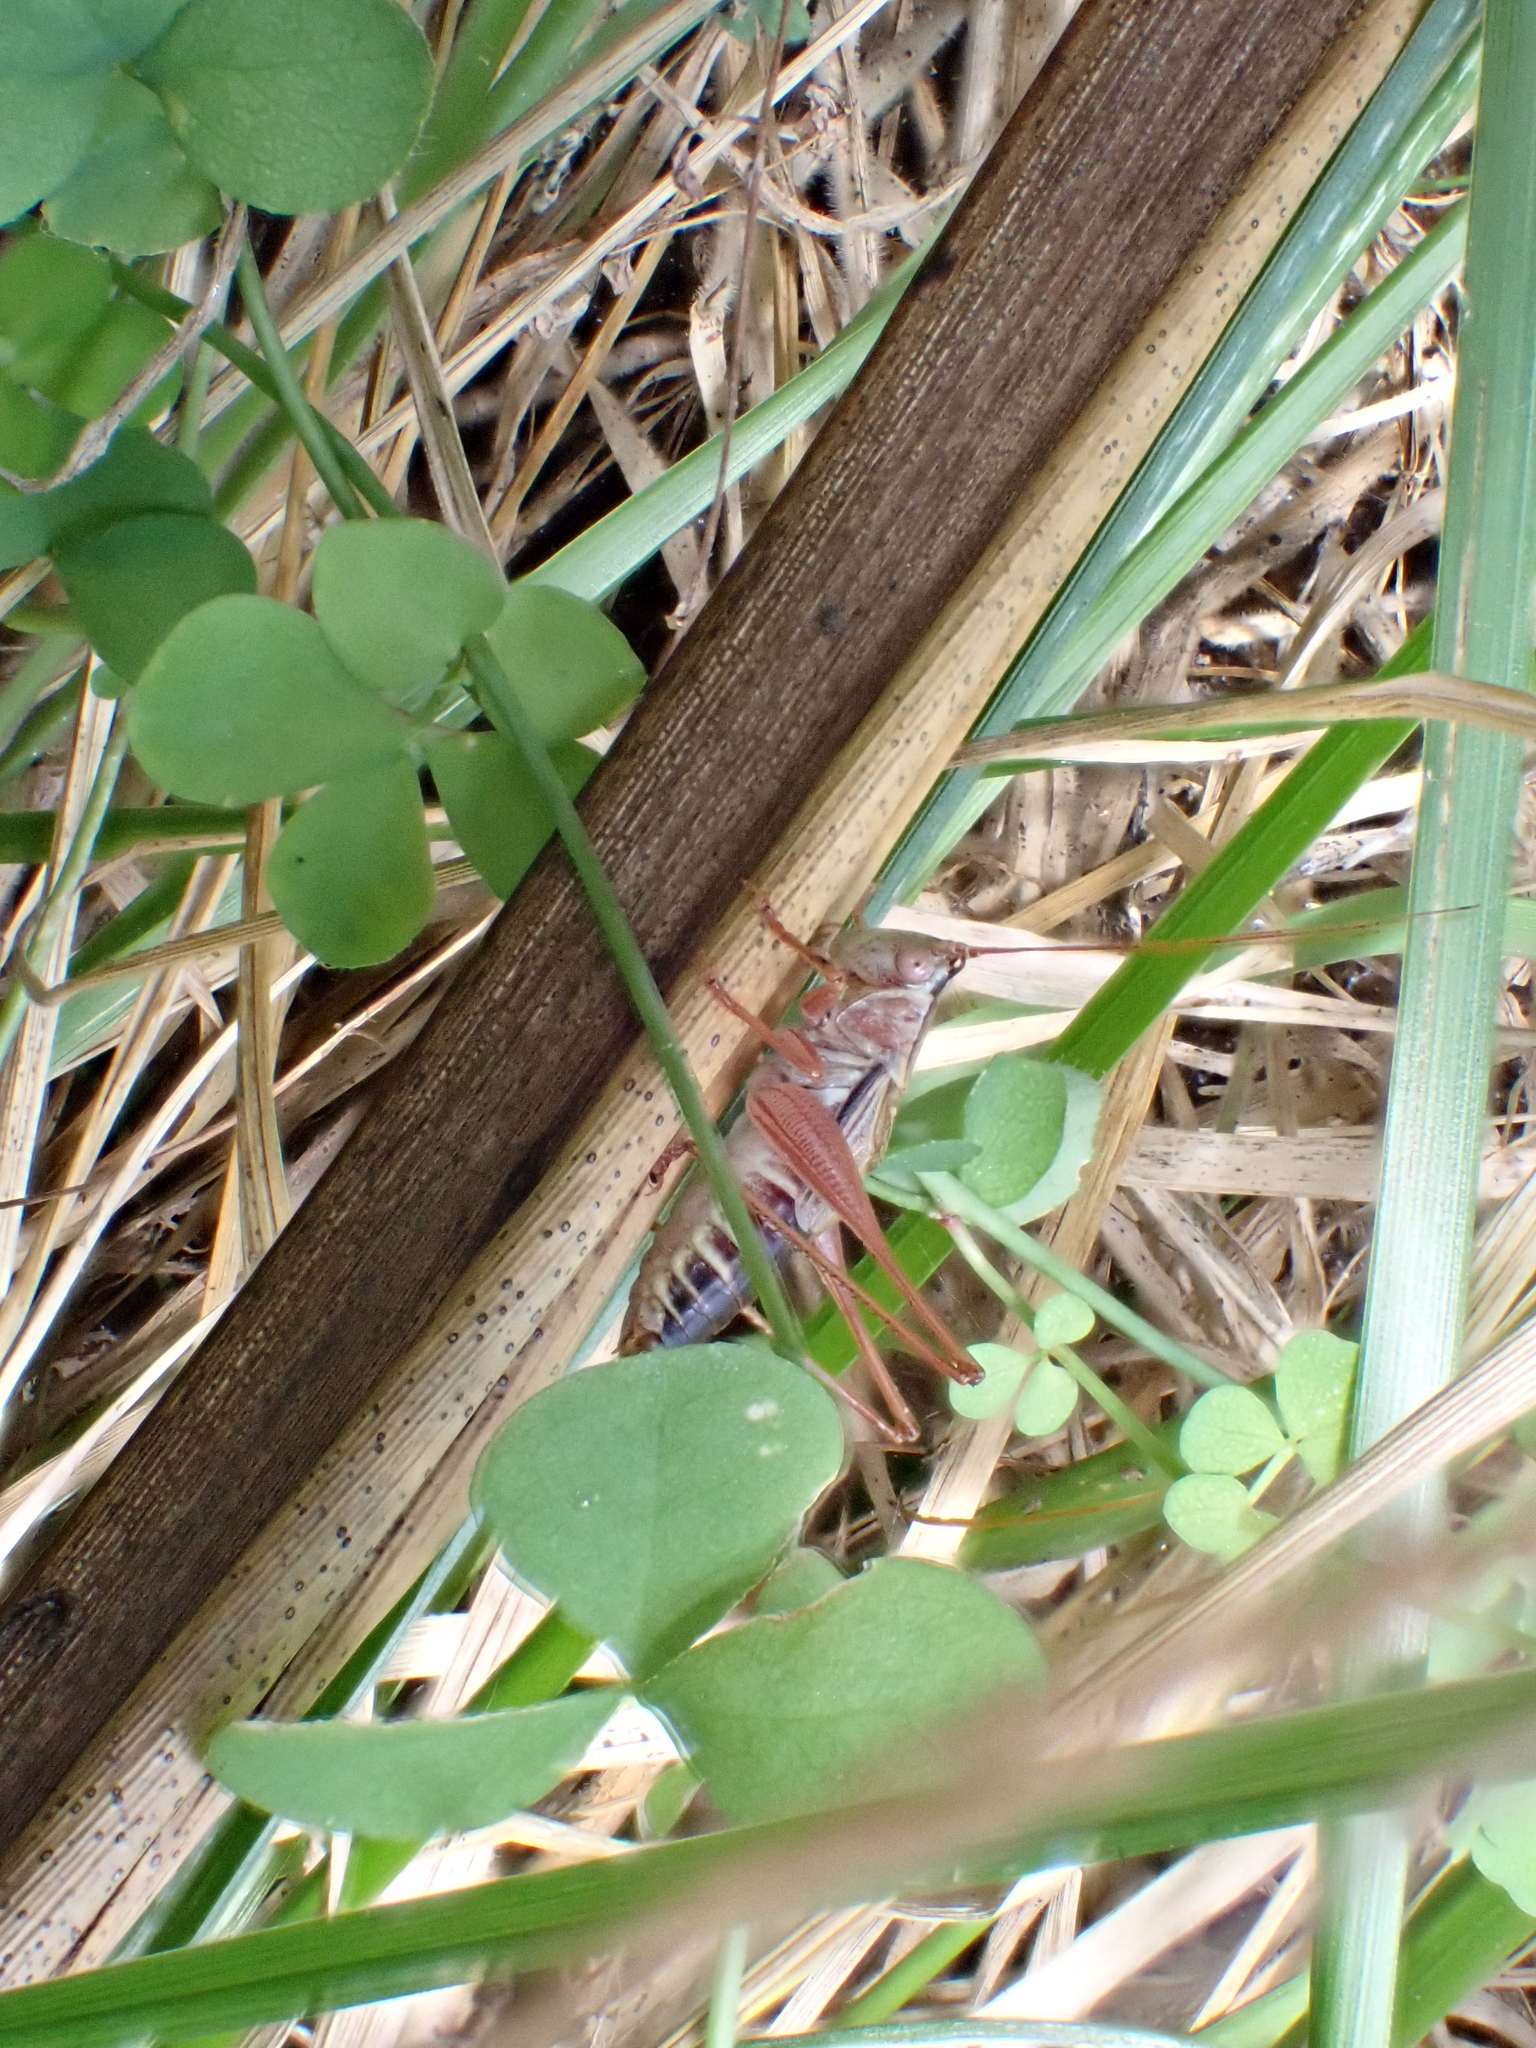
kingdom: Animalia
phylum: Arthropoda
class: Insecta
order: Orthoptera
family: Tettigoniidae
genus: Conocephalus
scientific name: Conocephalus semivittatus
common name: Blackish meadow katydid
